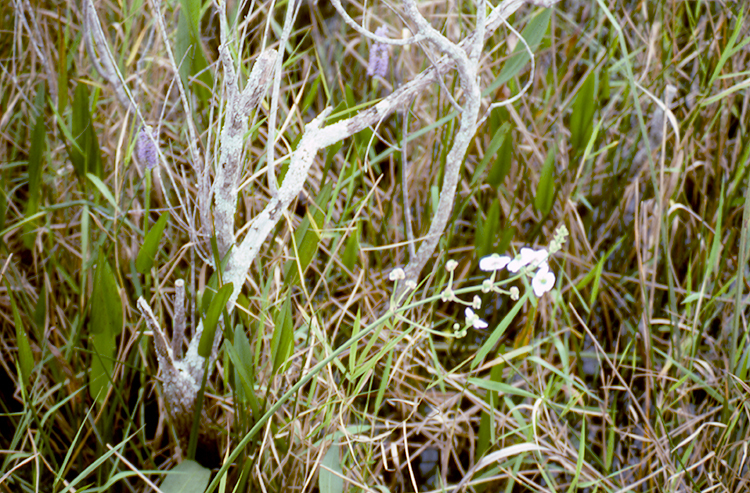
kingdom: Plantae
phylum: Tracheophyta
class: Liliopsida
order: Alismatales
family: Alismataceae
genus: Sagittaria
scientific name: Sagittaria lancifolia
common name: Lance-leaf arrowhead
